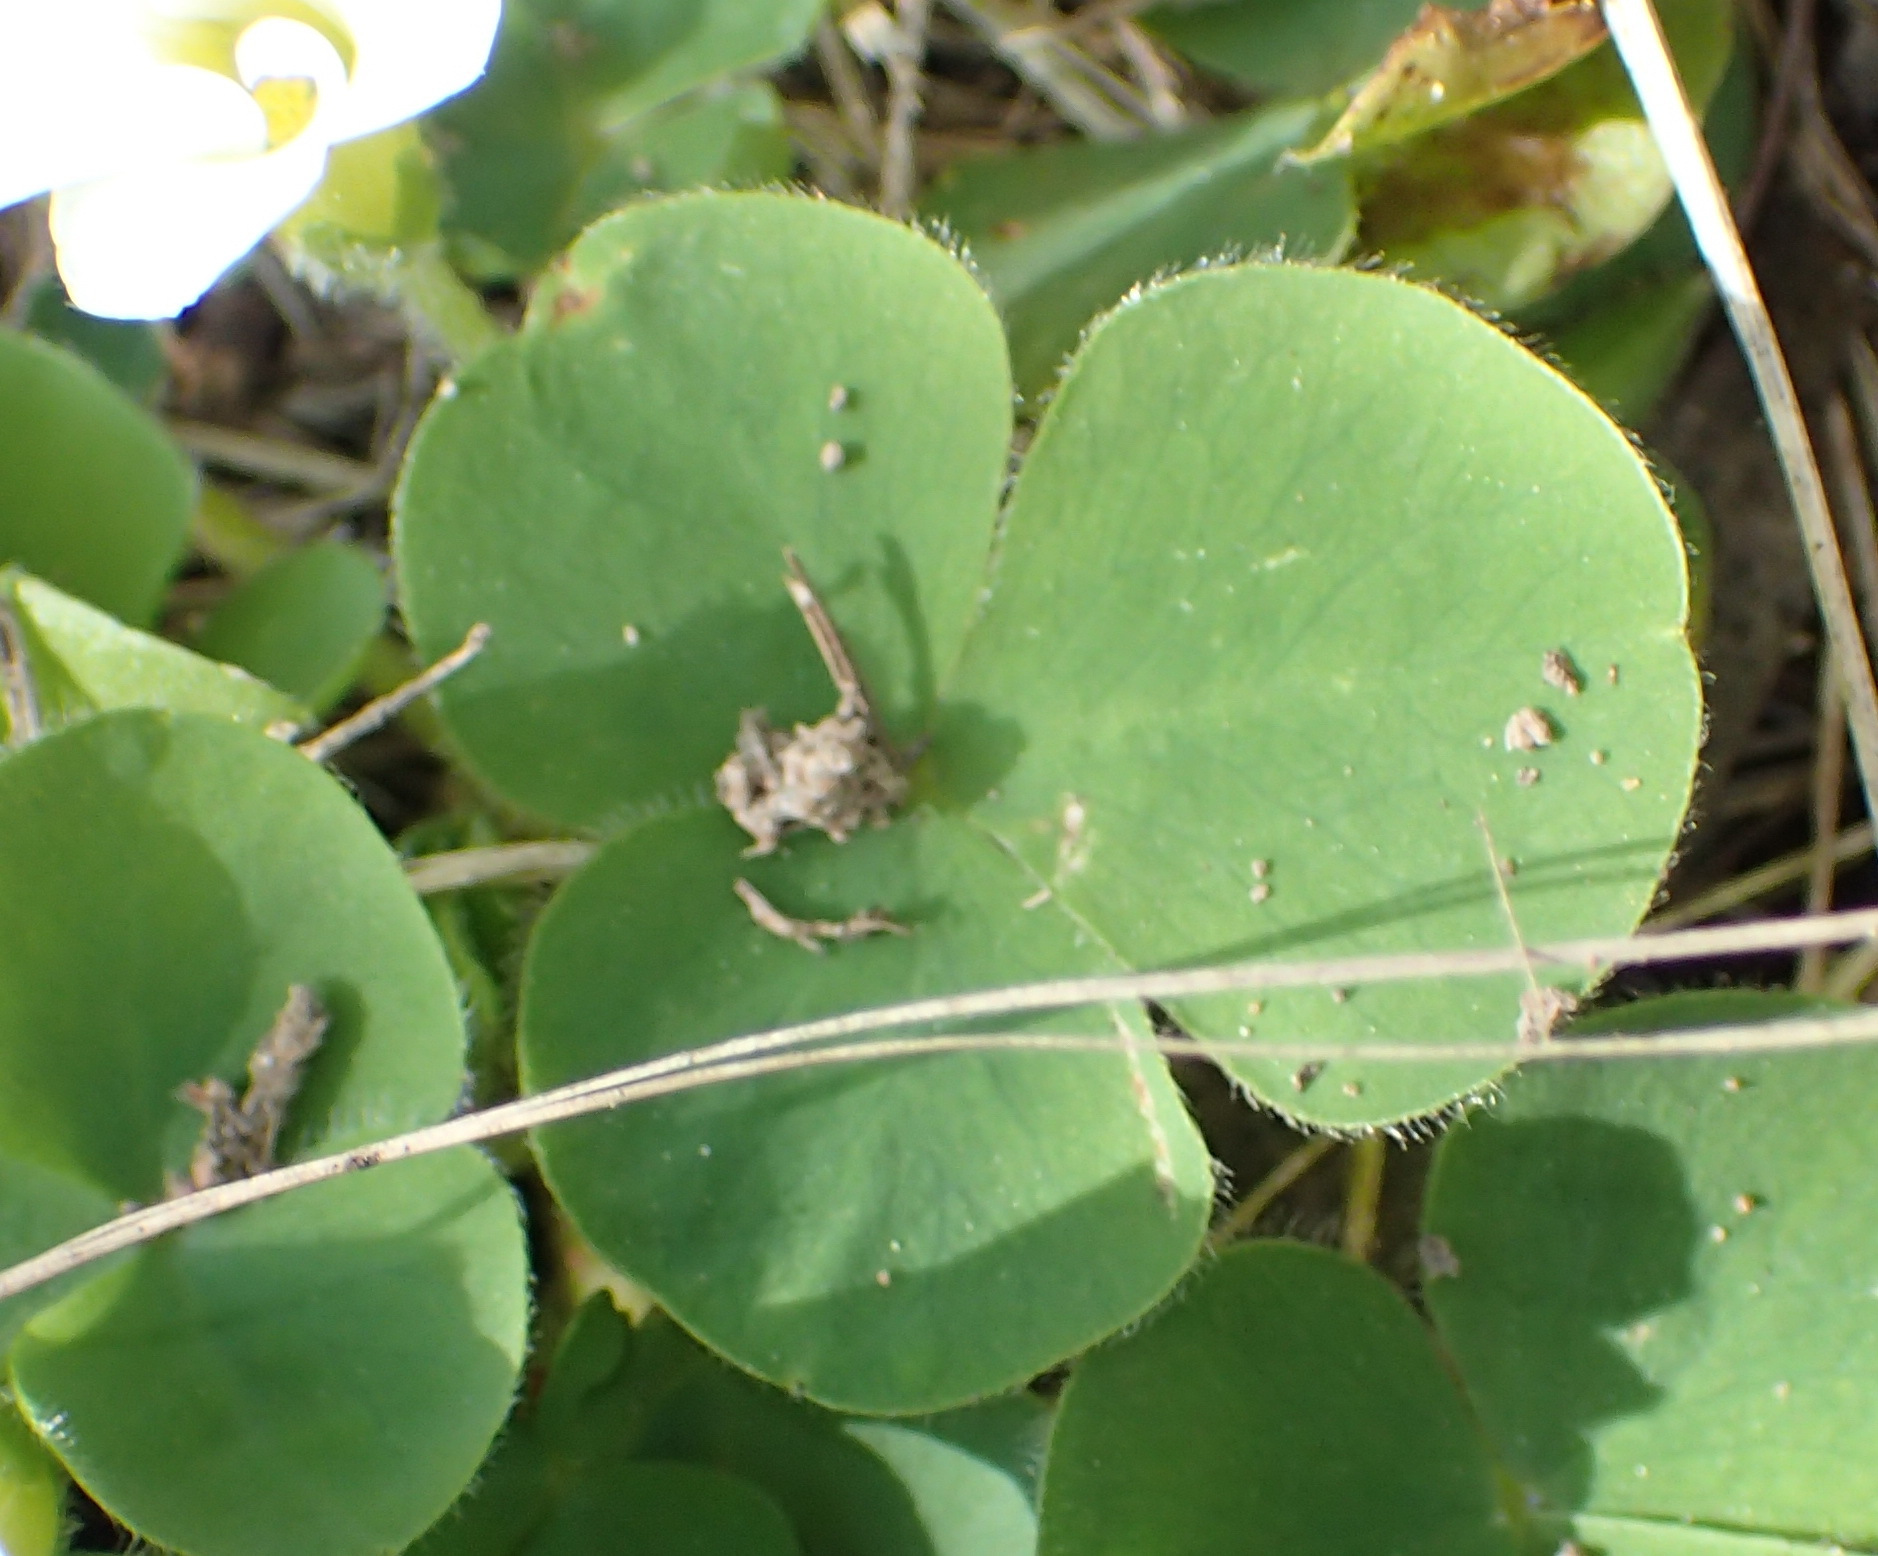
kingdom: Plantae
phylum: Tracheophyta
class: Magnoliopsida
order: Oxalidales
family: Oxalidaceae
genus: Oxalis
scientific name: Oxalis purpurea
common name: Purple woodsorrel
